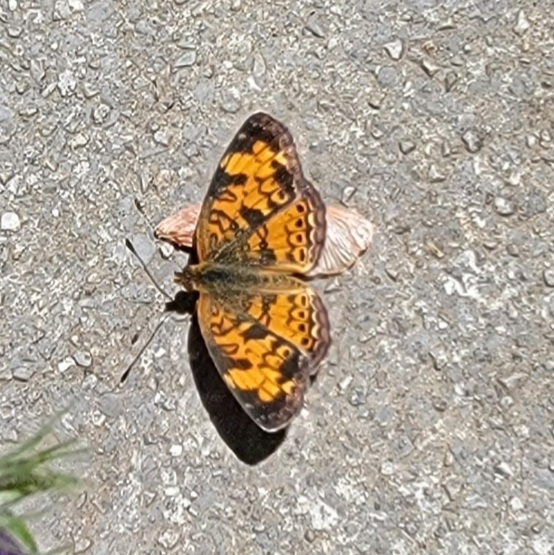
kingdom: Animalia
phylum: Arthropoda
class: Insecta
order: Lepidoptera
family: Nymphalidae
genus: Phyciodes
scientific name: Phyciodes tharos
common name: Pearl crescent
